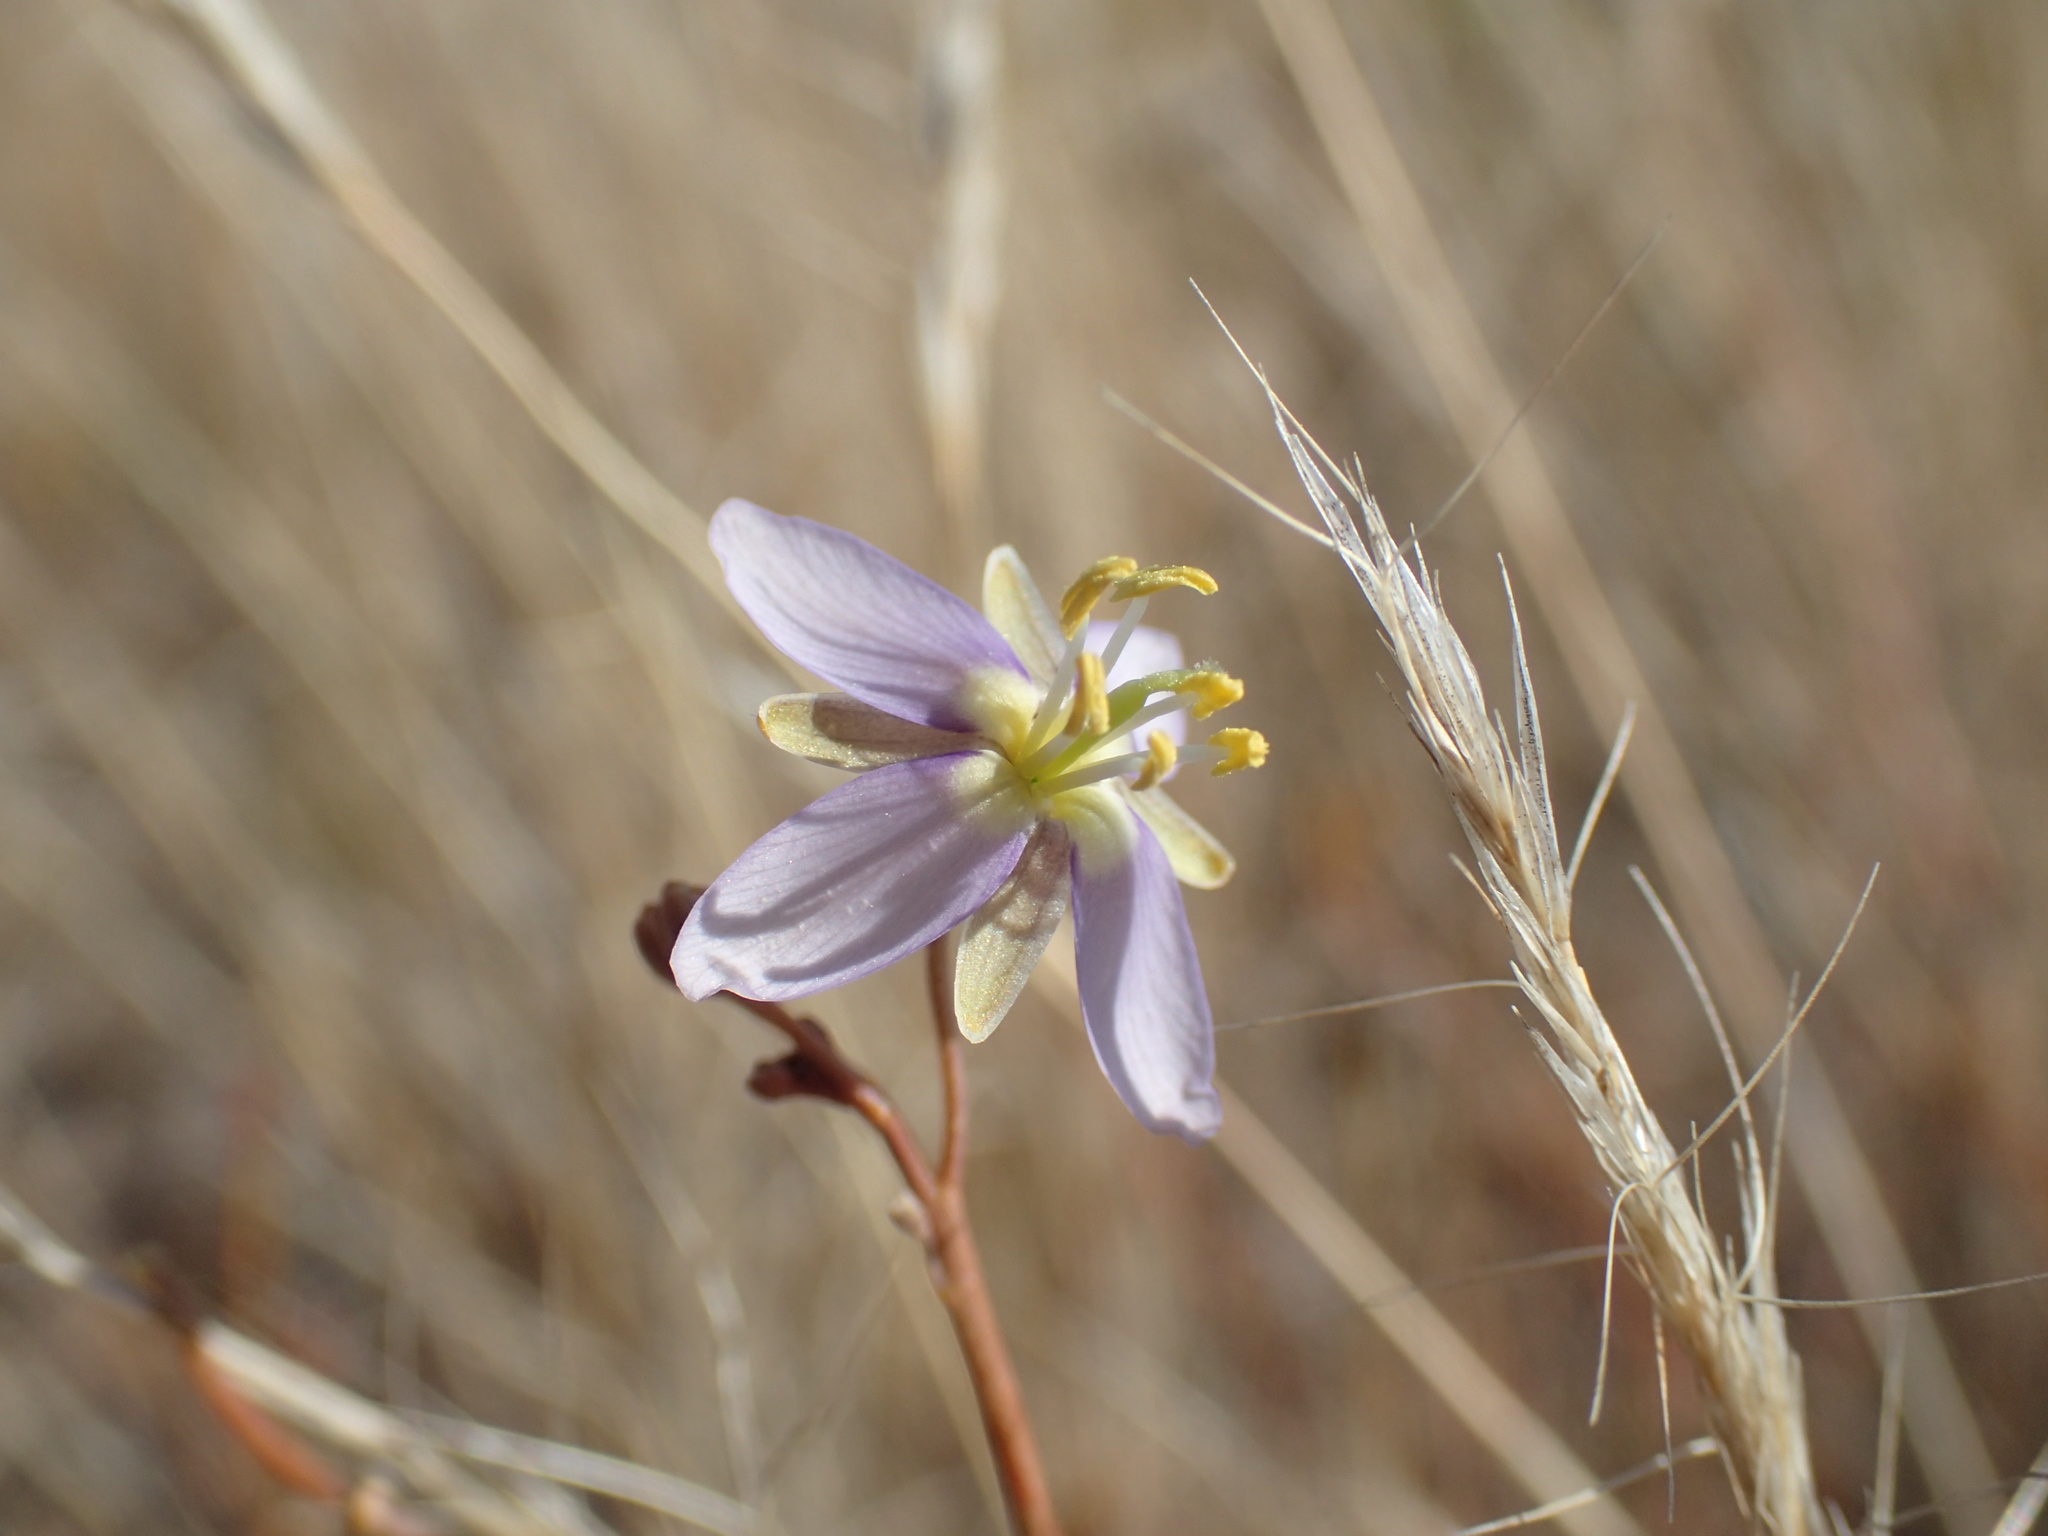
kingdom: Plantae
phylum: Tracheophyta
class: Magnoliopsida
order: Brassicales
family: Brassicaceae
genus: Heliophila
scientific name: Heliophila minima
